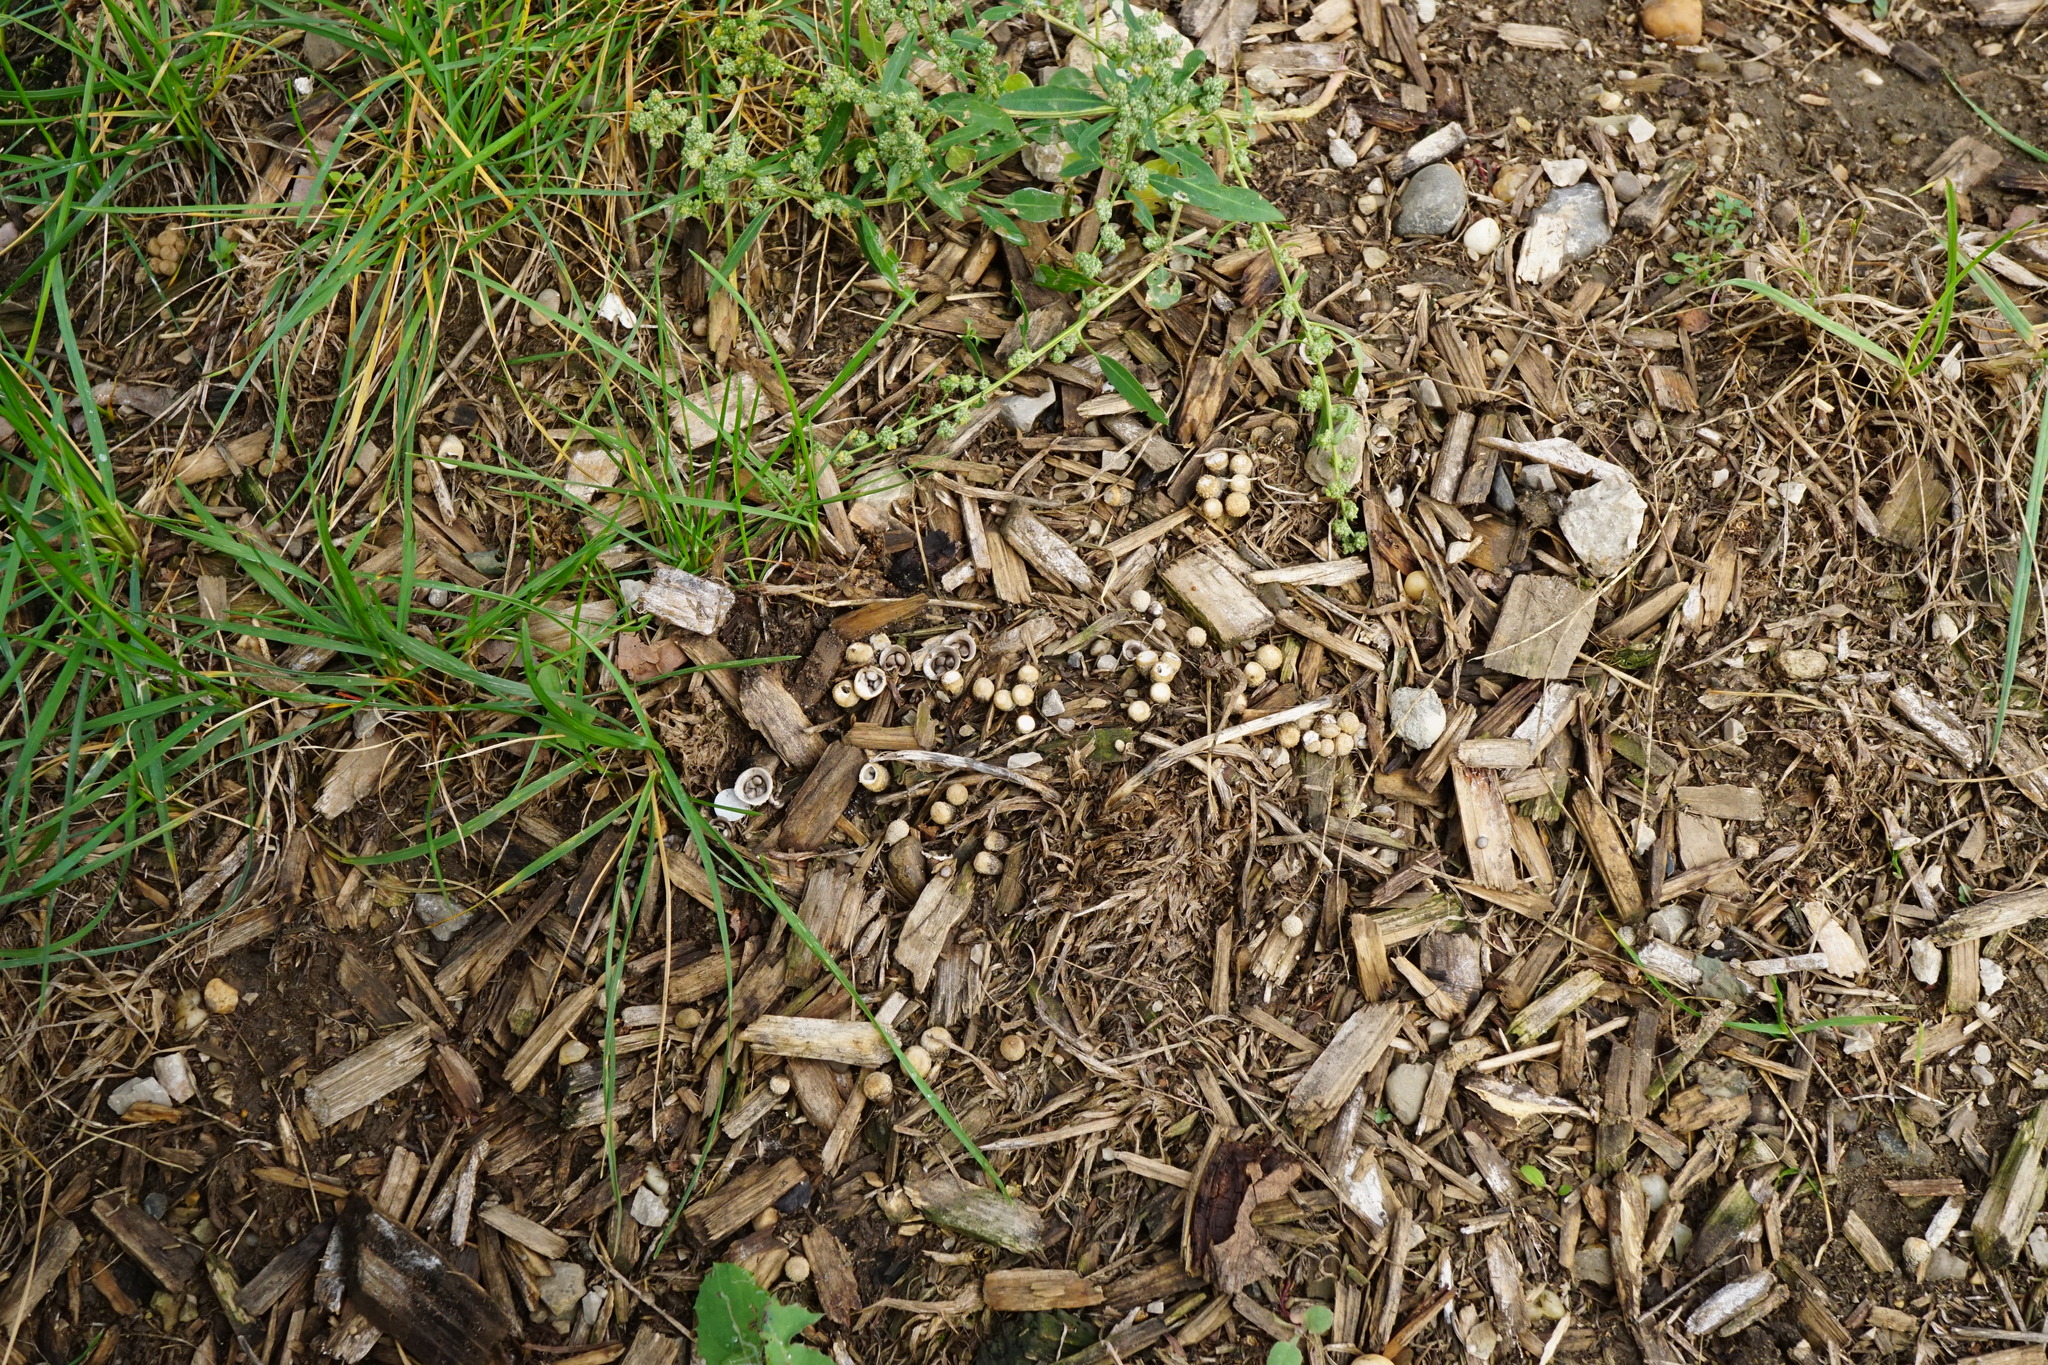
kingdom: Fungi
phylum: Basidiomycota
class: Agaricomycetes
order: Agaricales
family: Agaricaceae
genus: Cyathus
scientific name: Cyathus olla
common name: Field bird's nest
